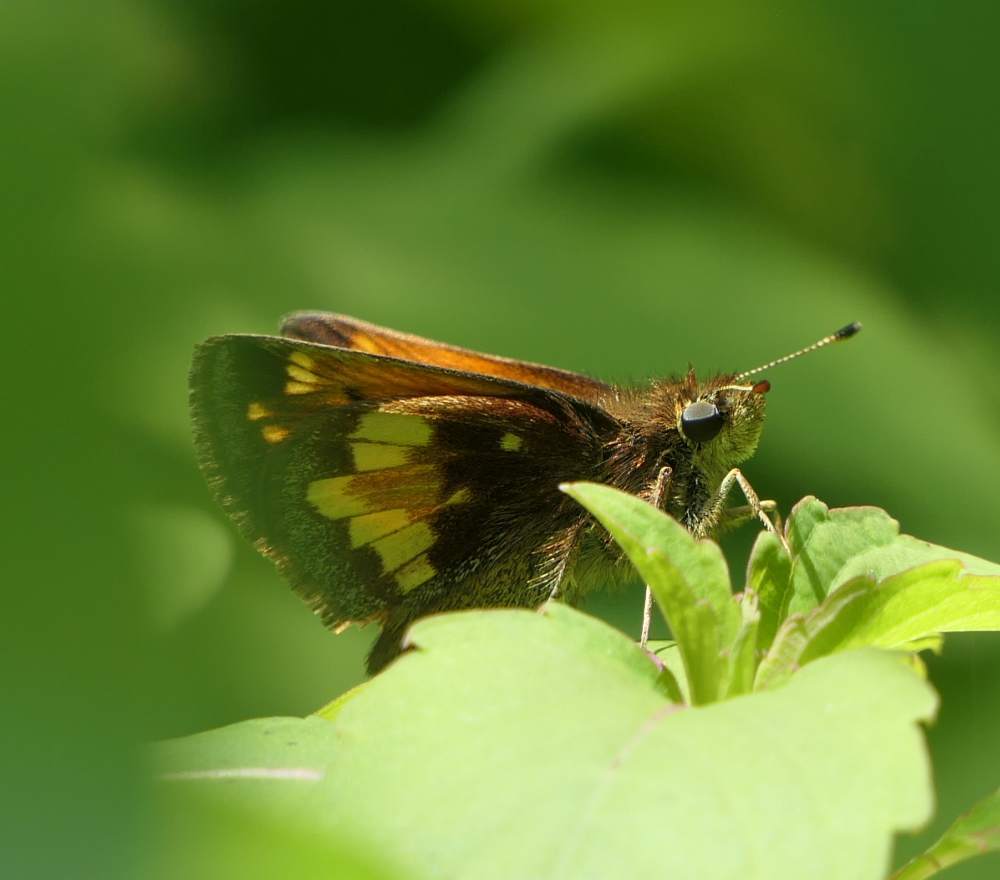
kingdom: Animalia
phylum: Arthropoda
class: Insecta
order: Lepidoptera
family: Hesperiidae
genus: Lon
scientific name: Lon hobomok
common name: Hobomok skipper
